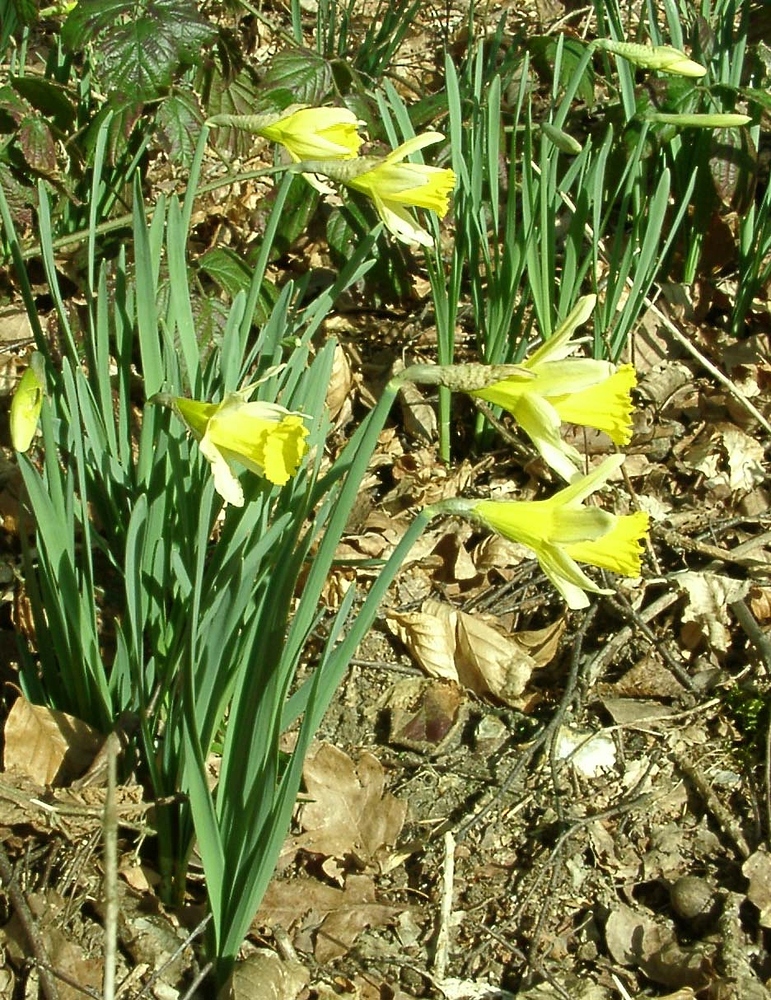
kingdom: Plantae
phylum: Tracheophyta
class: Liliopsida
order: Asparagales
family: Amaryllidaceae
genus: Narcissus
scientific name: Narcissus pseudonarcissus
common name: Daffodil
